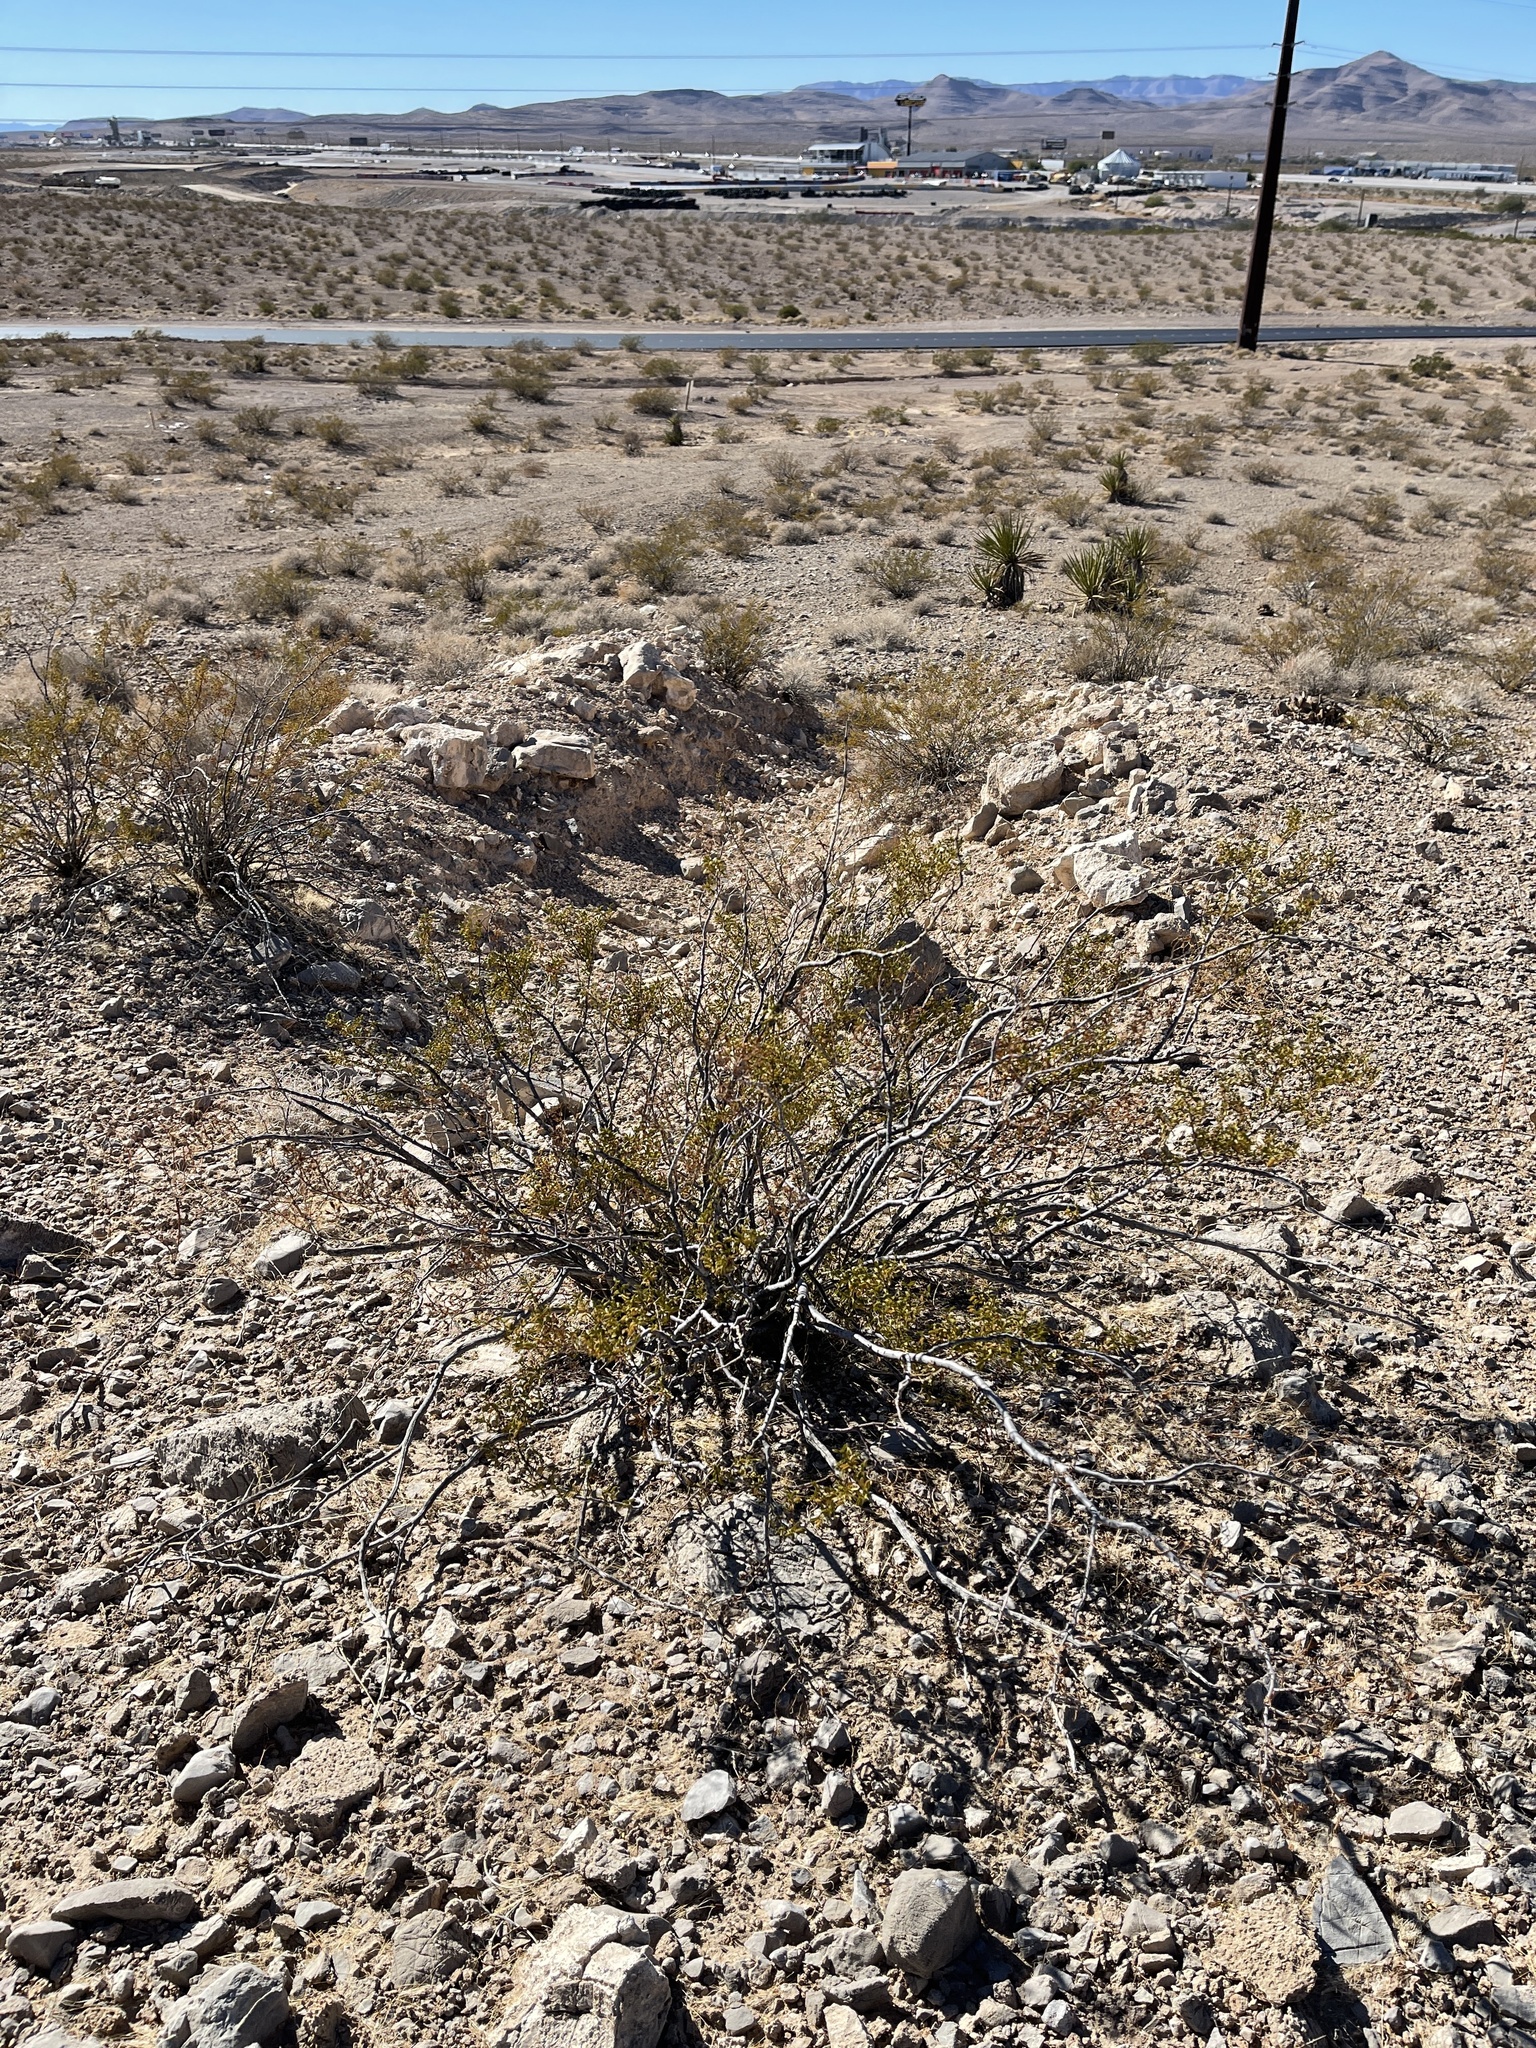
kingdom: Plantae
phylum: Tracheophyta
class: Magnoliopsida
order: Zygophyllales
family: Zygophyllaceae
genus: Larrea
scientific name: Larrea tridentata
